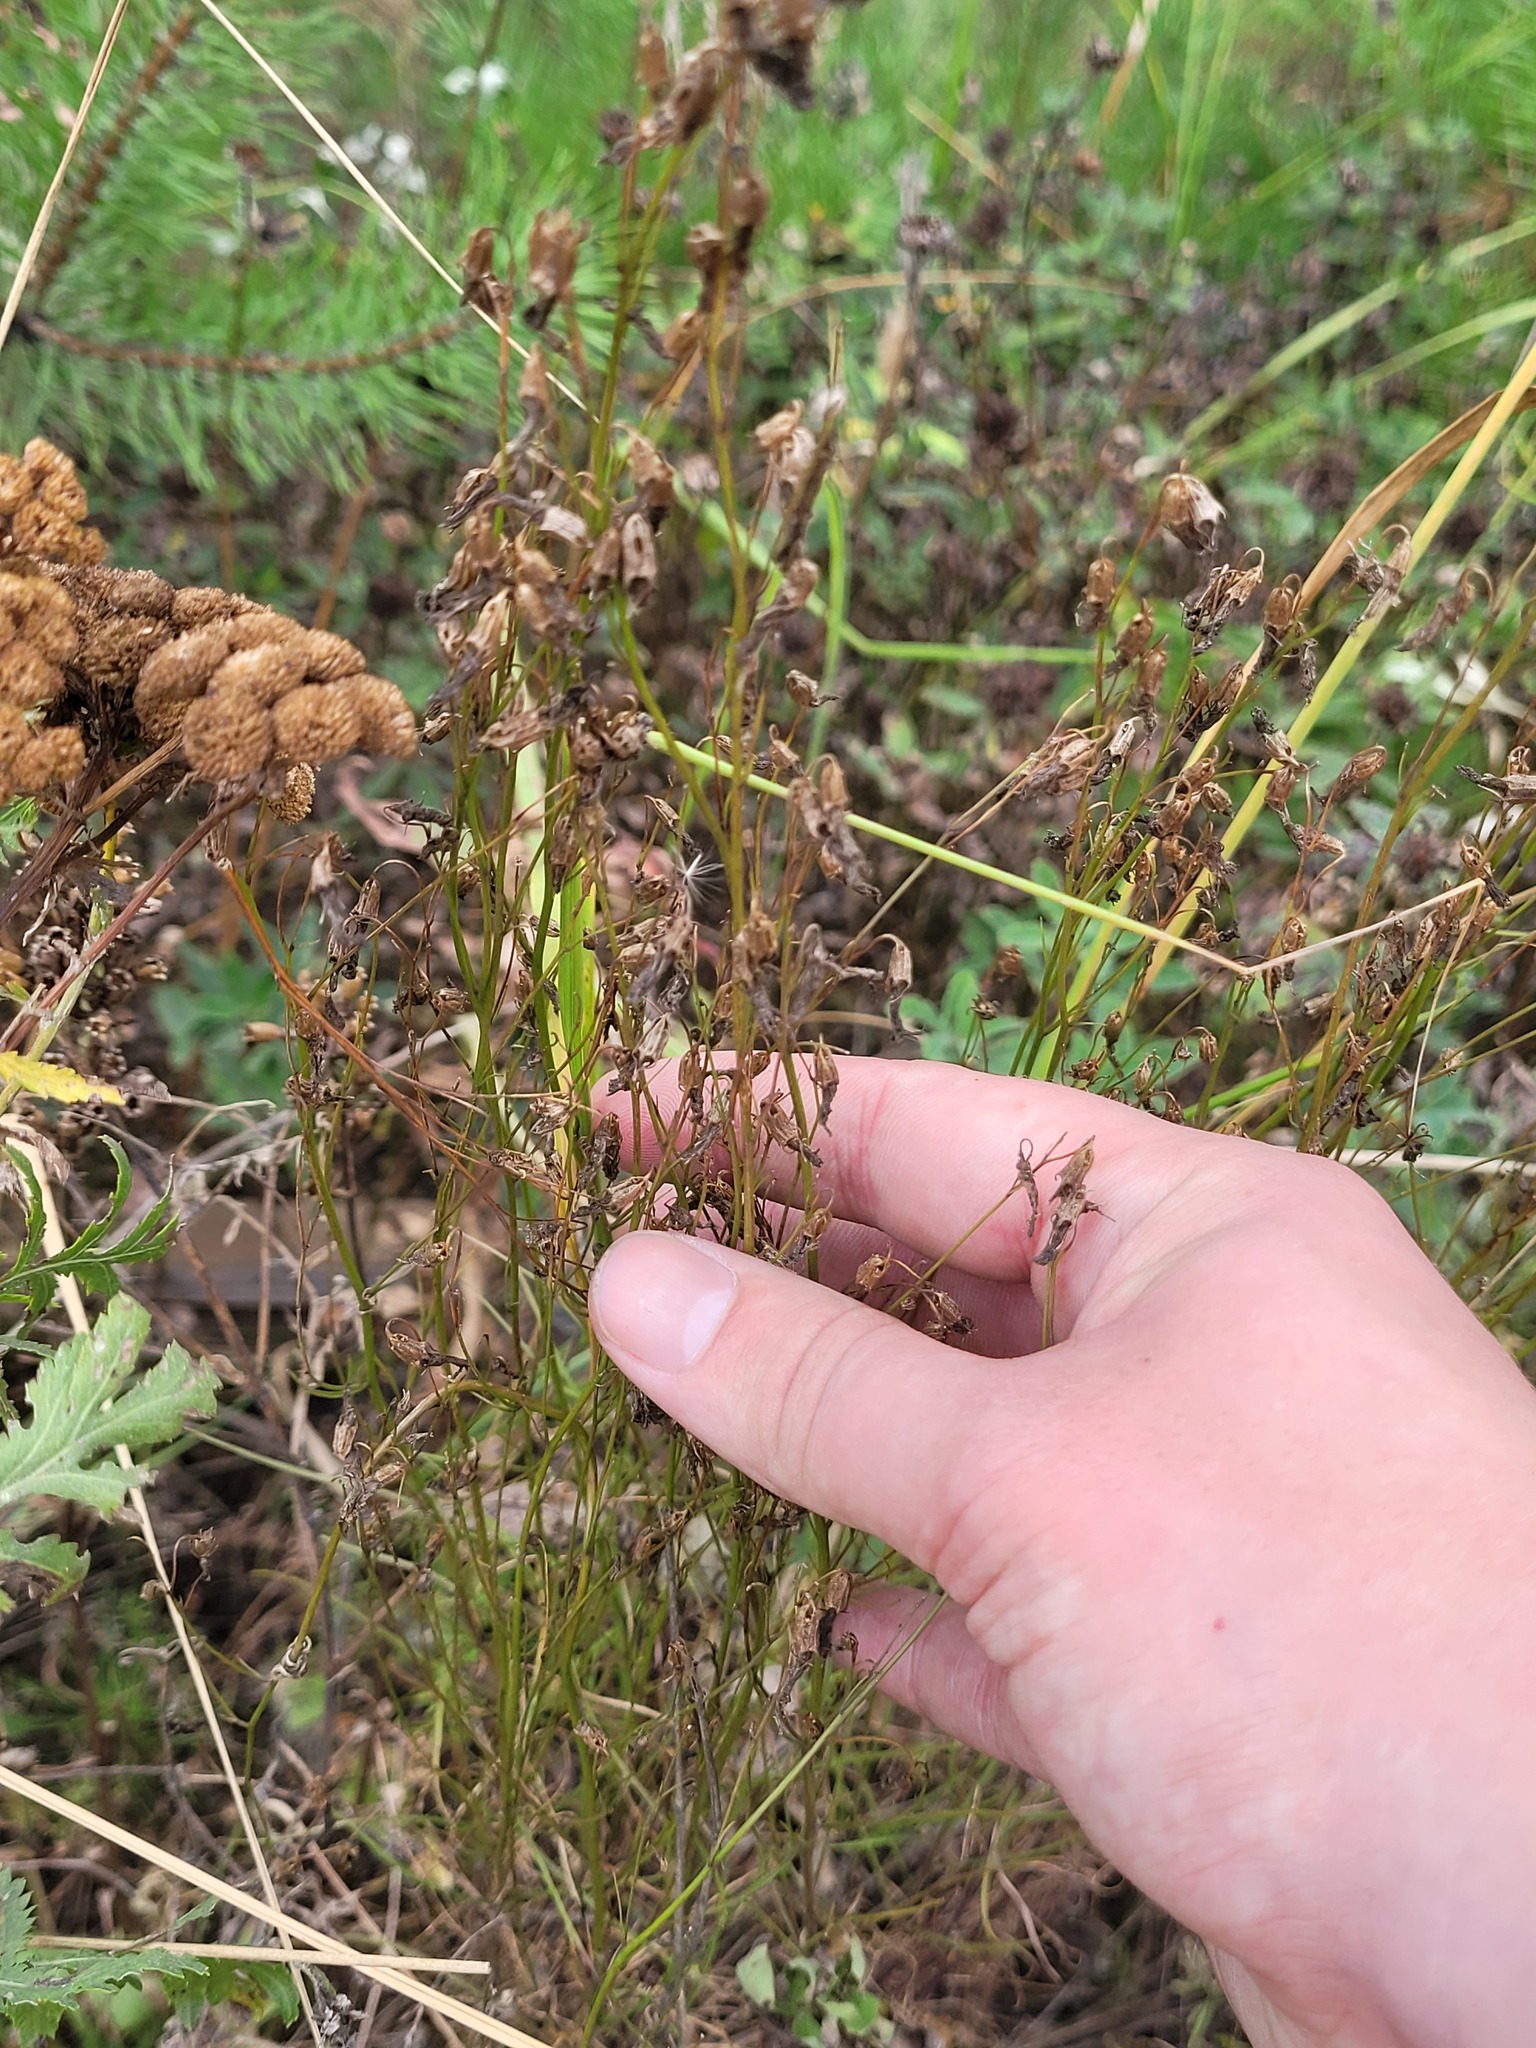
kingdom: Plantae
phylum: Tracheophyta
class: Magnoliopsida
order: Asterales
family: Campanulaceae
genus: Campanula
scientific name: Campanula rotundifolia
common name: Harebell
